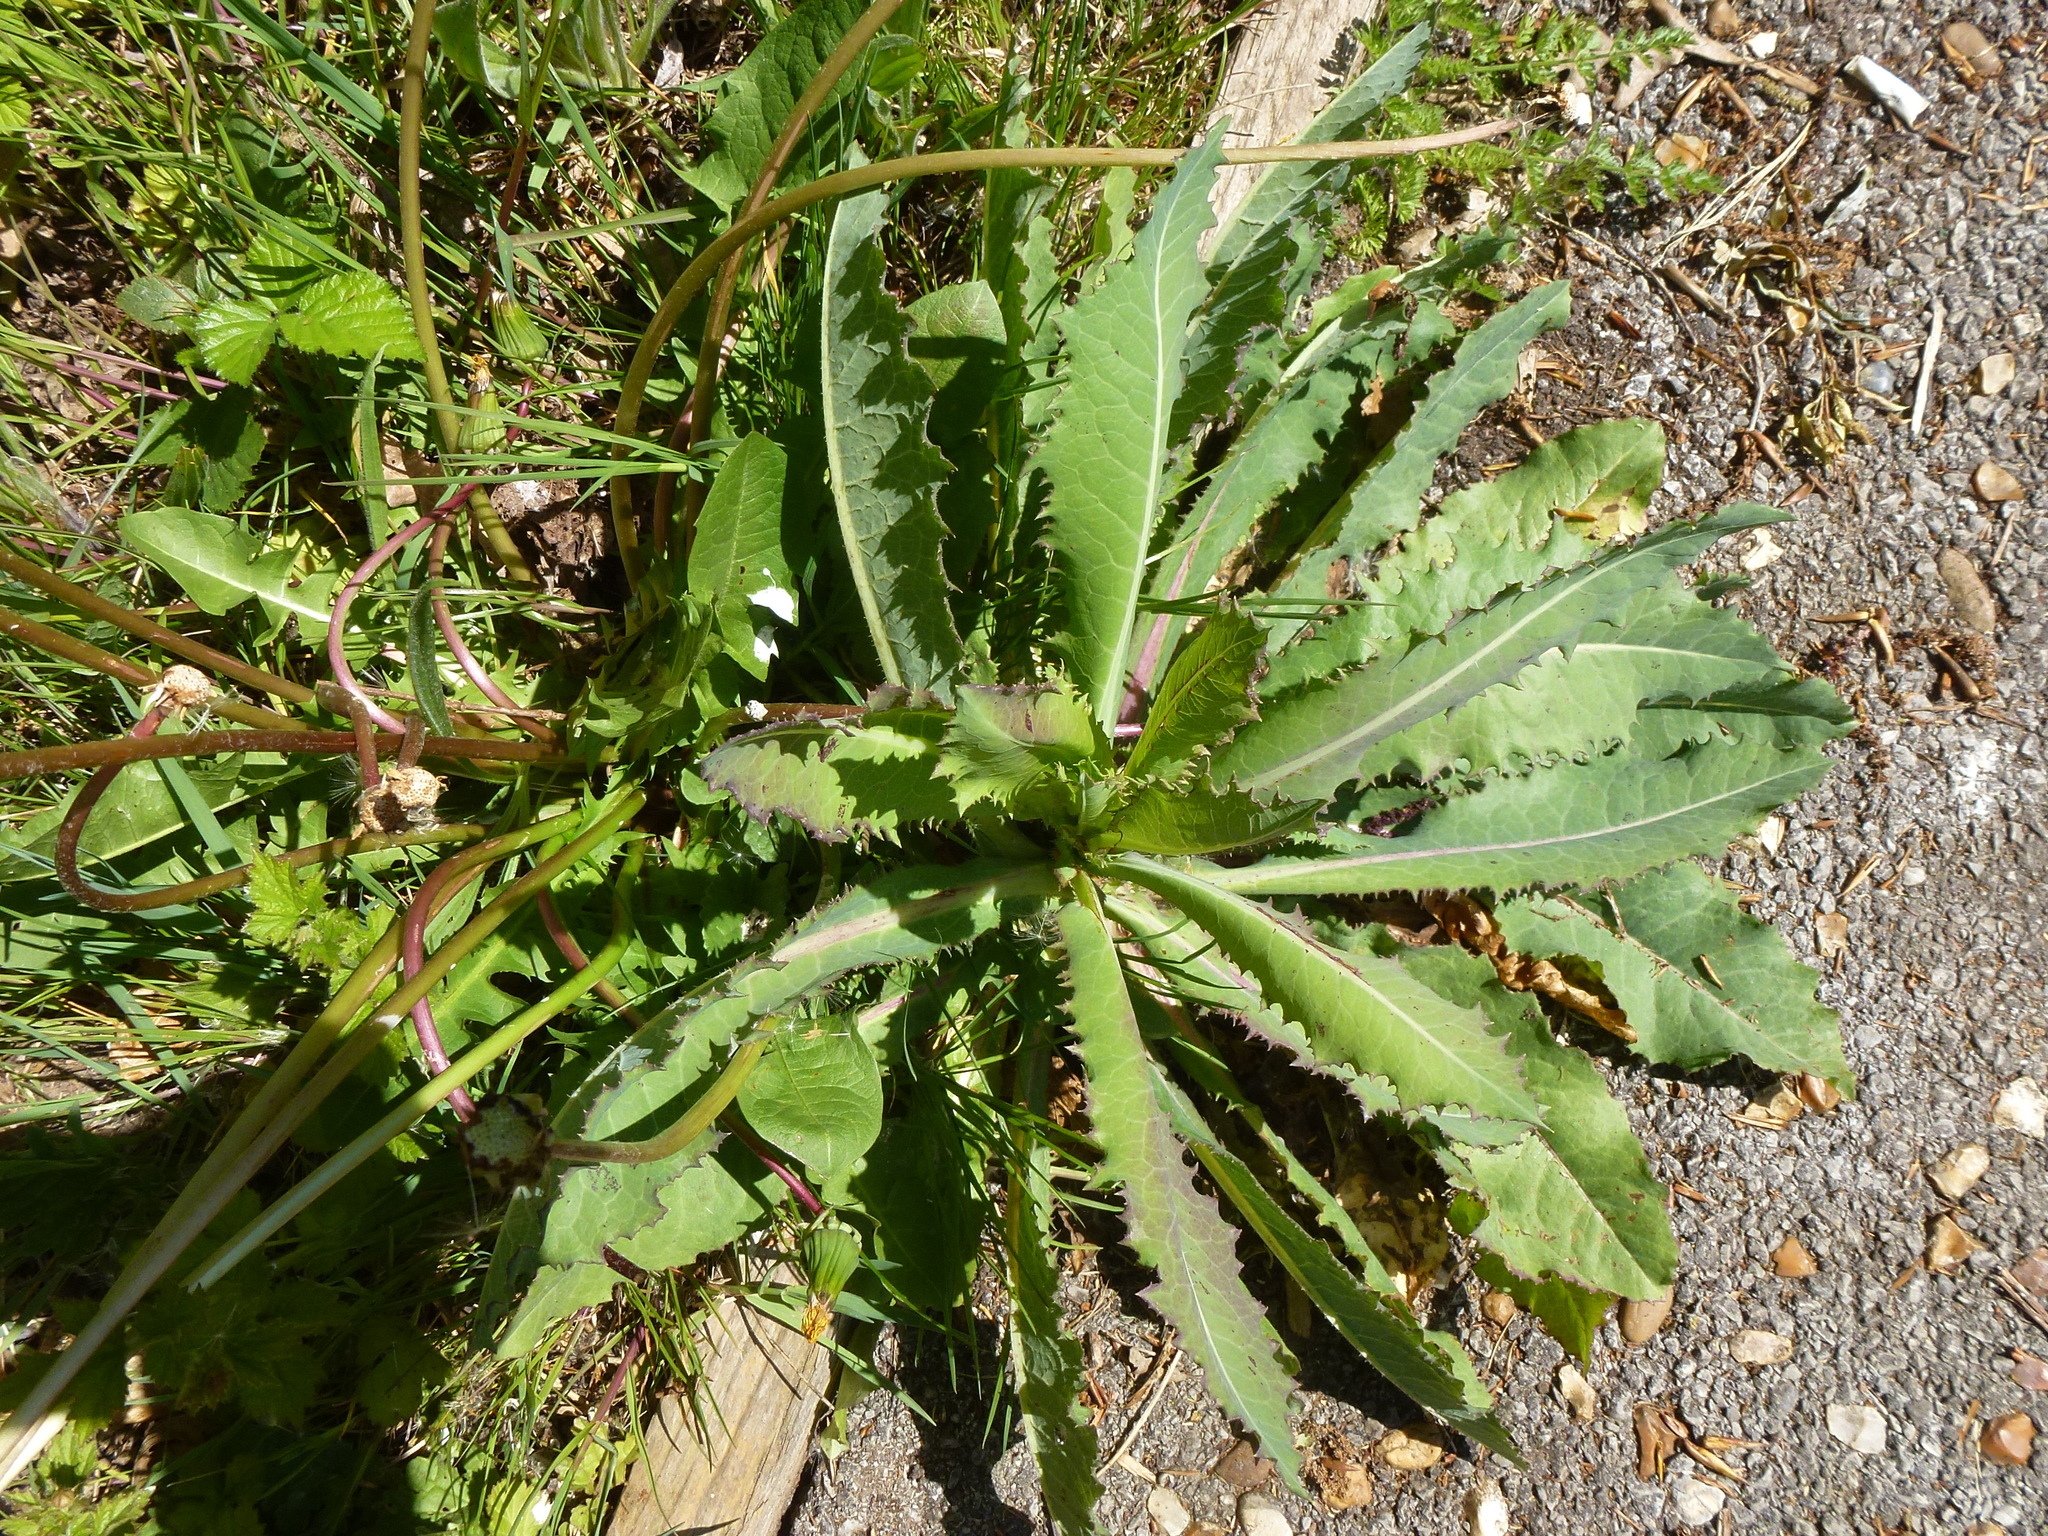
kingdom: Plantae
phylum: Tracheophyta
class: Magnoliopsida
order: Asterales
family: Asteraceae
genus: Hypochaeris
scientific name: Hypochaeris radicata
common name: Flatweed
